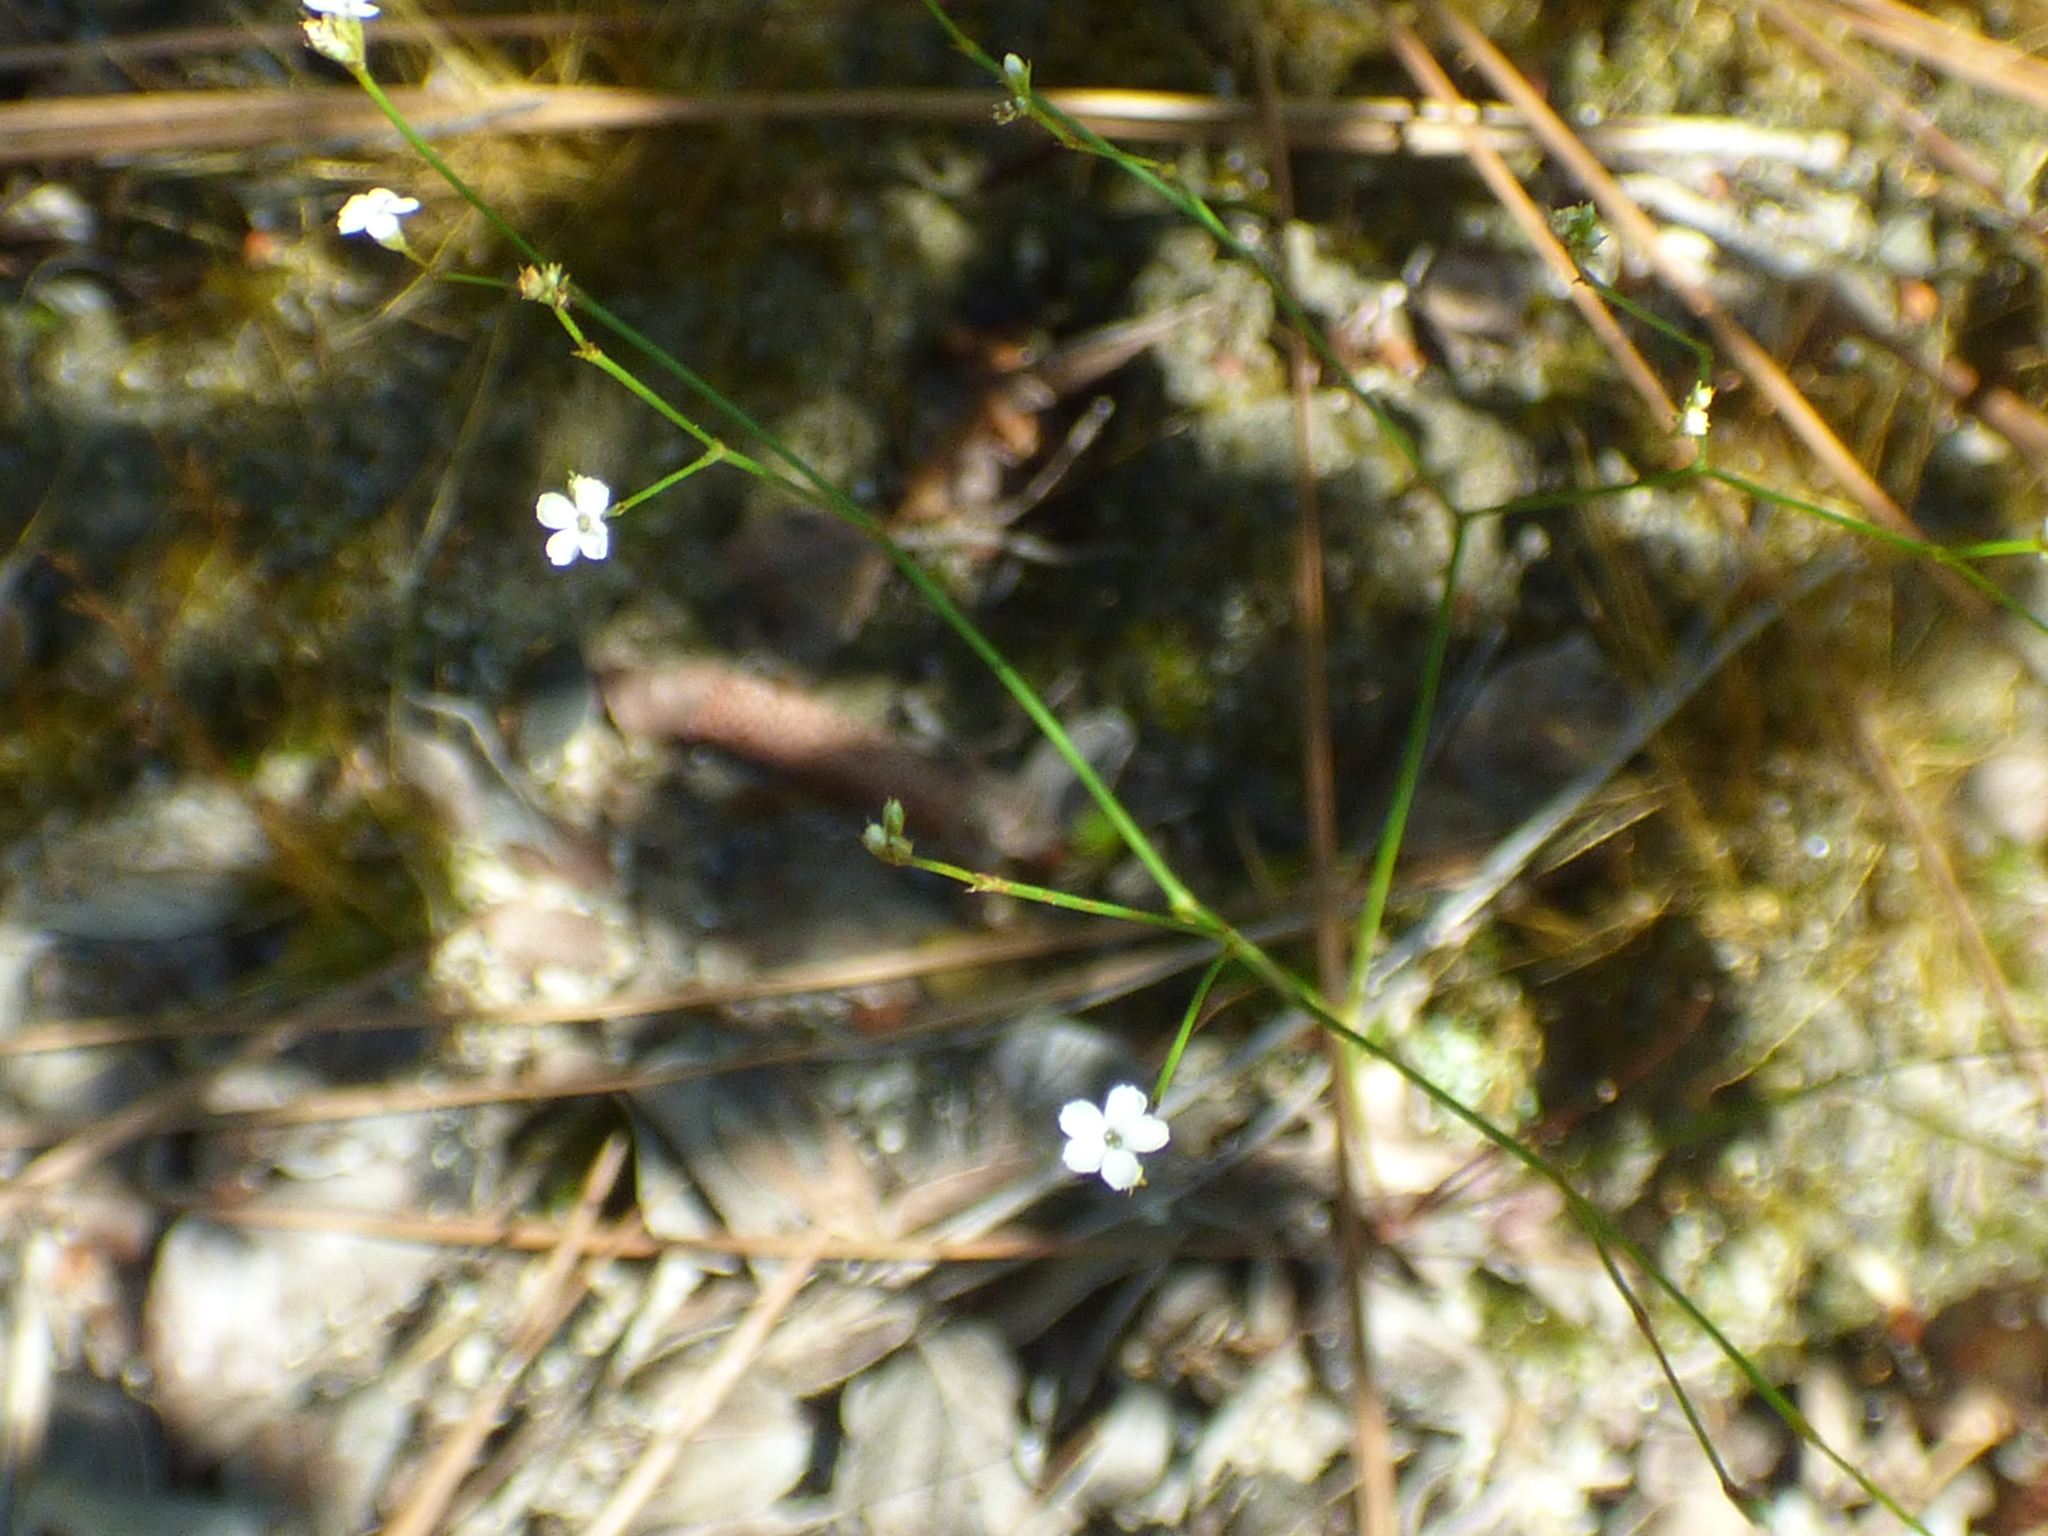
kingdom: Plantae
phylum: Tracheophyta
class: Magnoliopsida
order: Caryophyllales
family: Caryophyllaceae
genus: Stipulicida
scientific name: Stipulicida setacea
